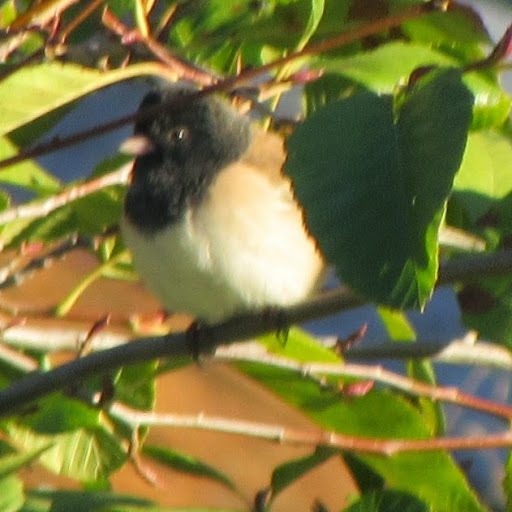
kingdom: Animalia
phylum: Chordata
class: Aves
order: Passeriformes
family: Passerellidae
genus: Junco
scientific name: Junco hyemalis
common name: Dark-eyed junco
